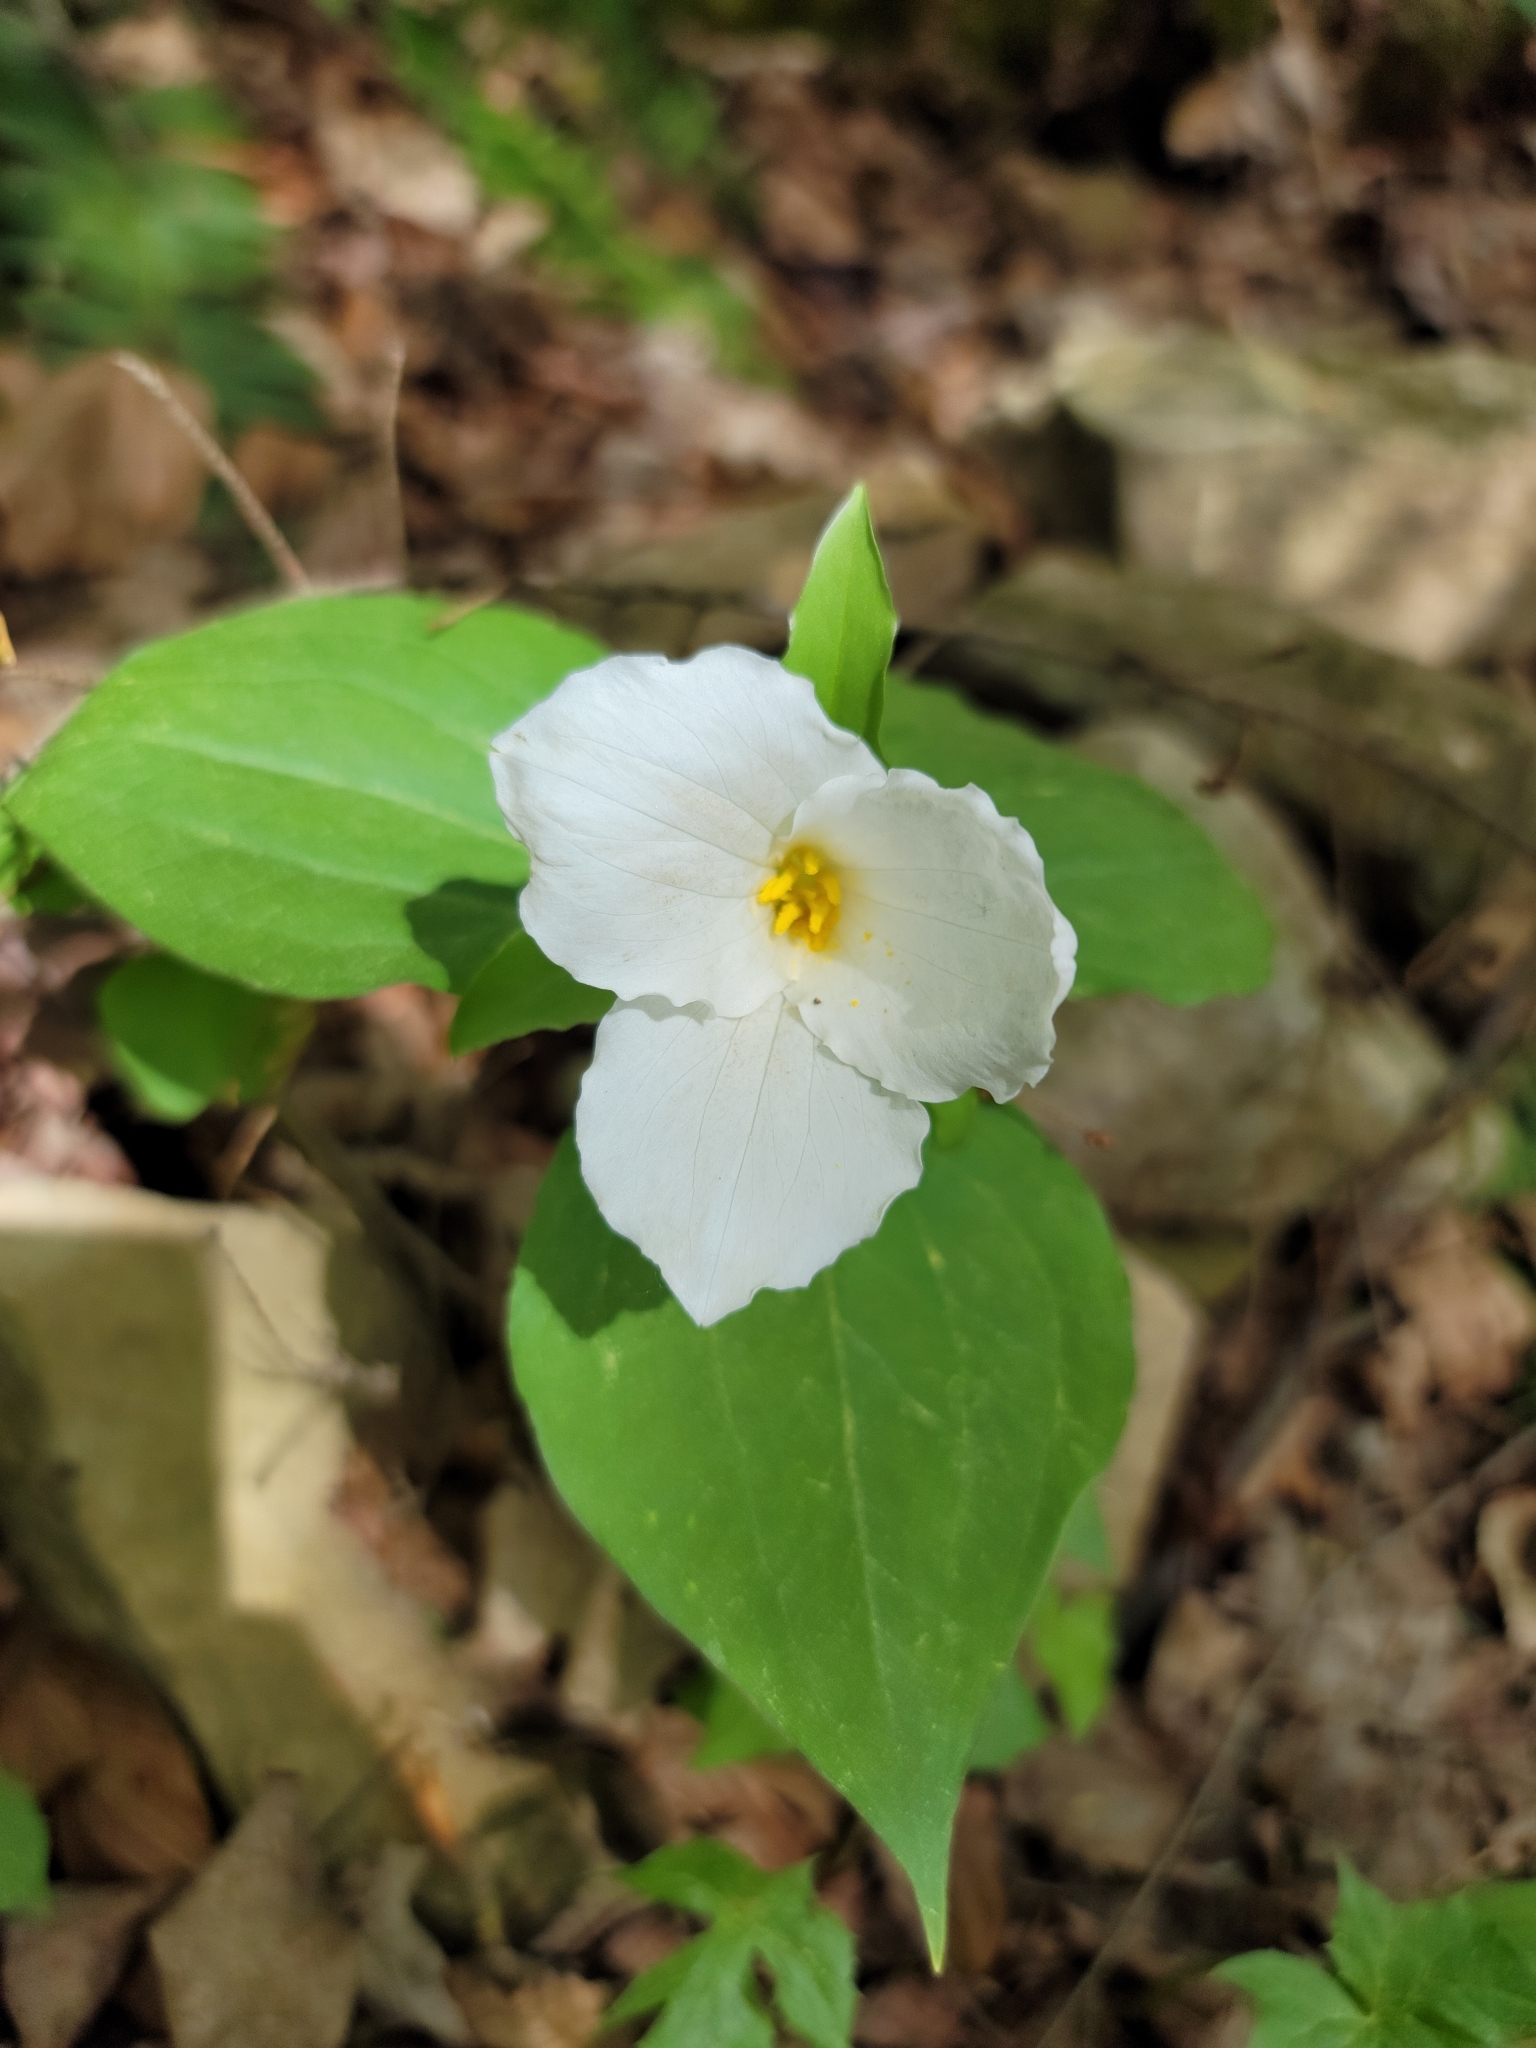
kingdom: Plantae
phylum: Tracheophyta
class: Liliopsida
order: Liliales
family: Melanthiaceae
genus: Trillium
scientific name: Trillium grandiflorum
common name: Great white trillium
